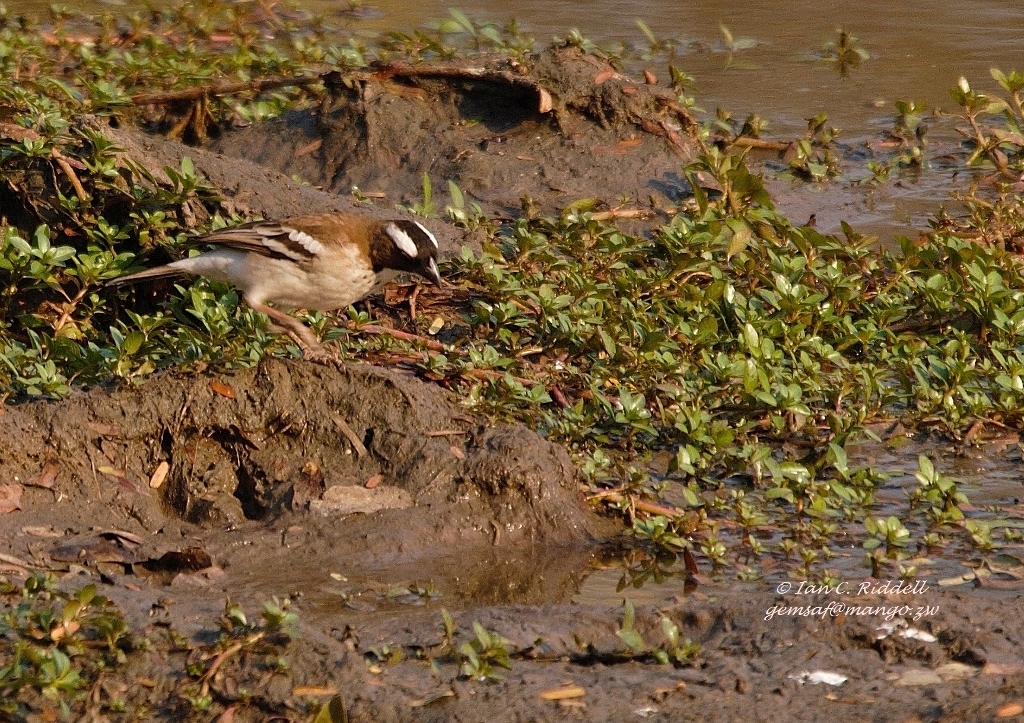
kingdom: Animalia
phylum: Chordata
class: Aves
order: Passeriformes
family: Passeridae
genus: Plocepasser
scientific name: Plocepasser mahali
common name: White-browed sparrow-weaver
